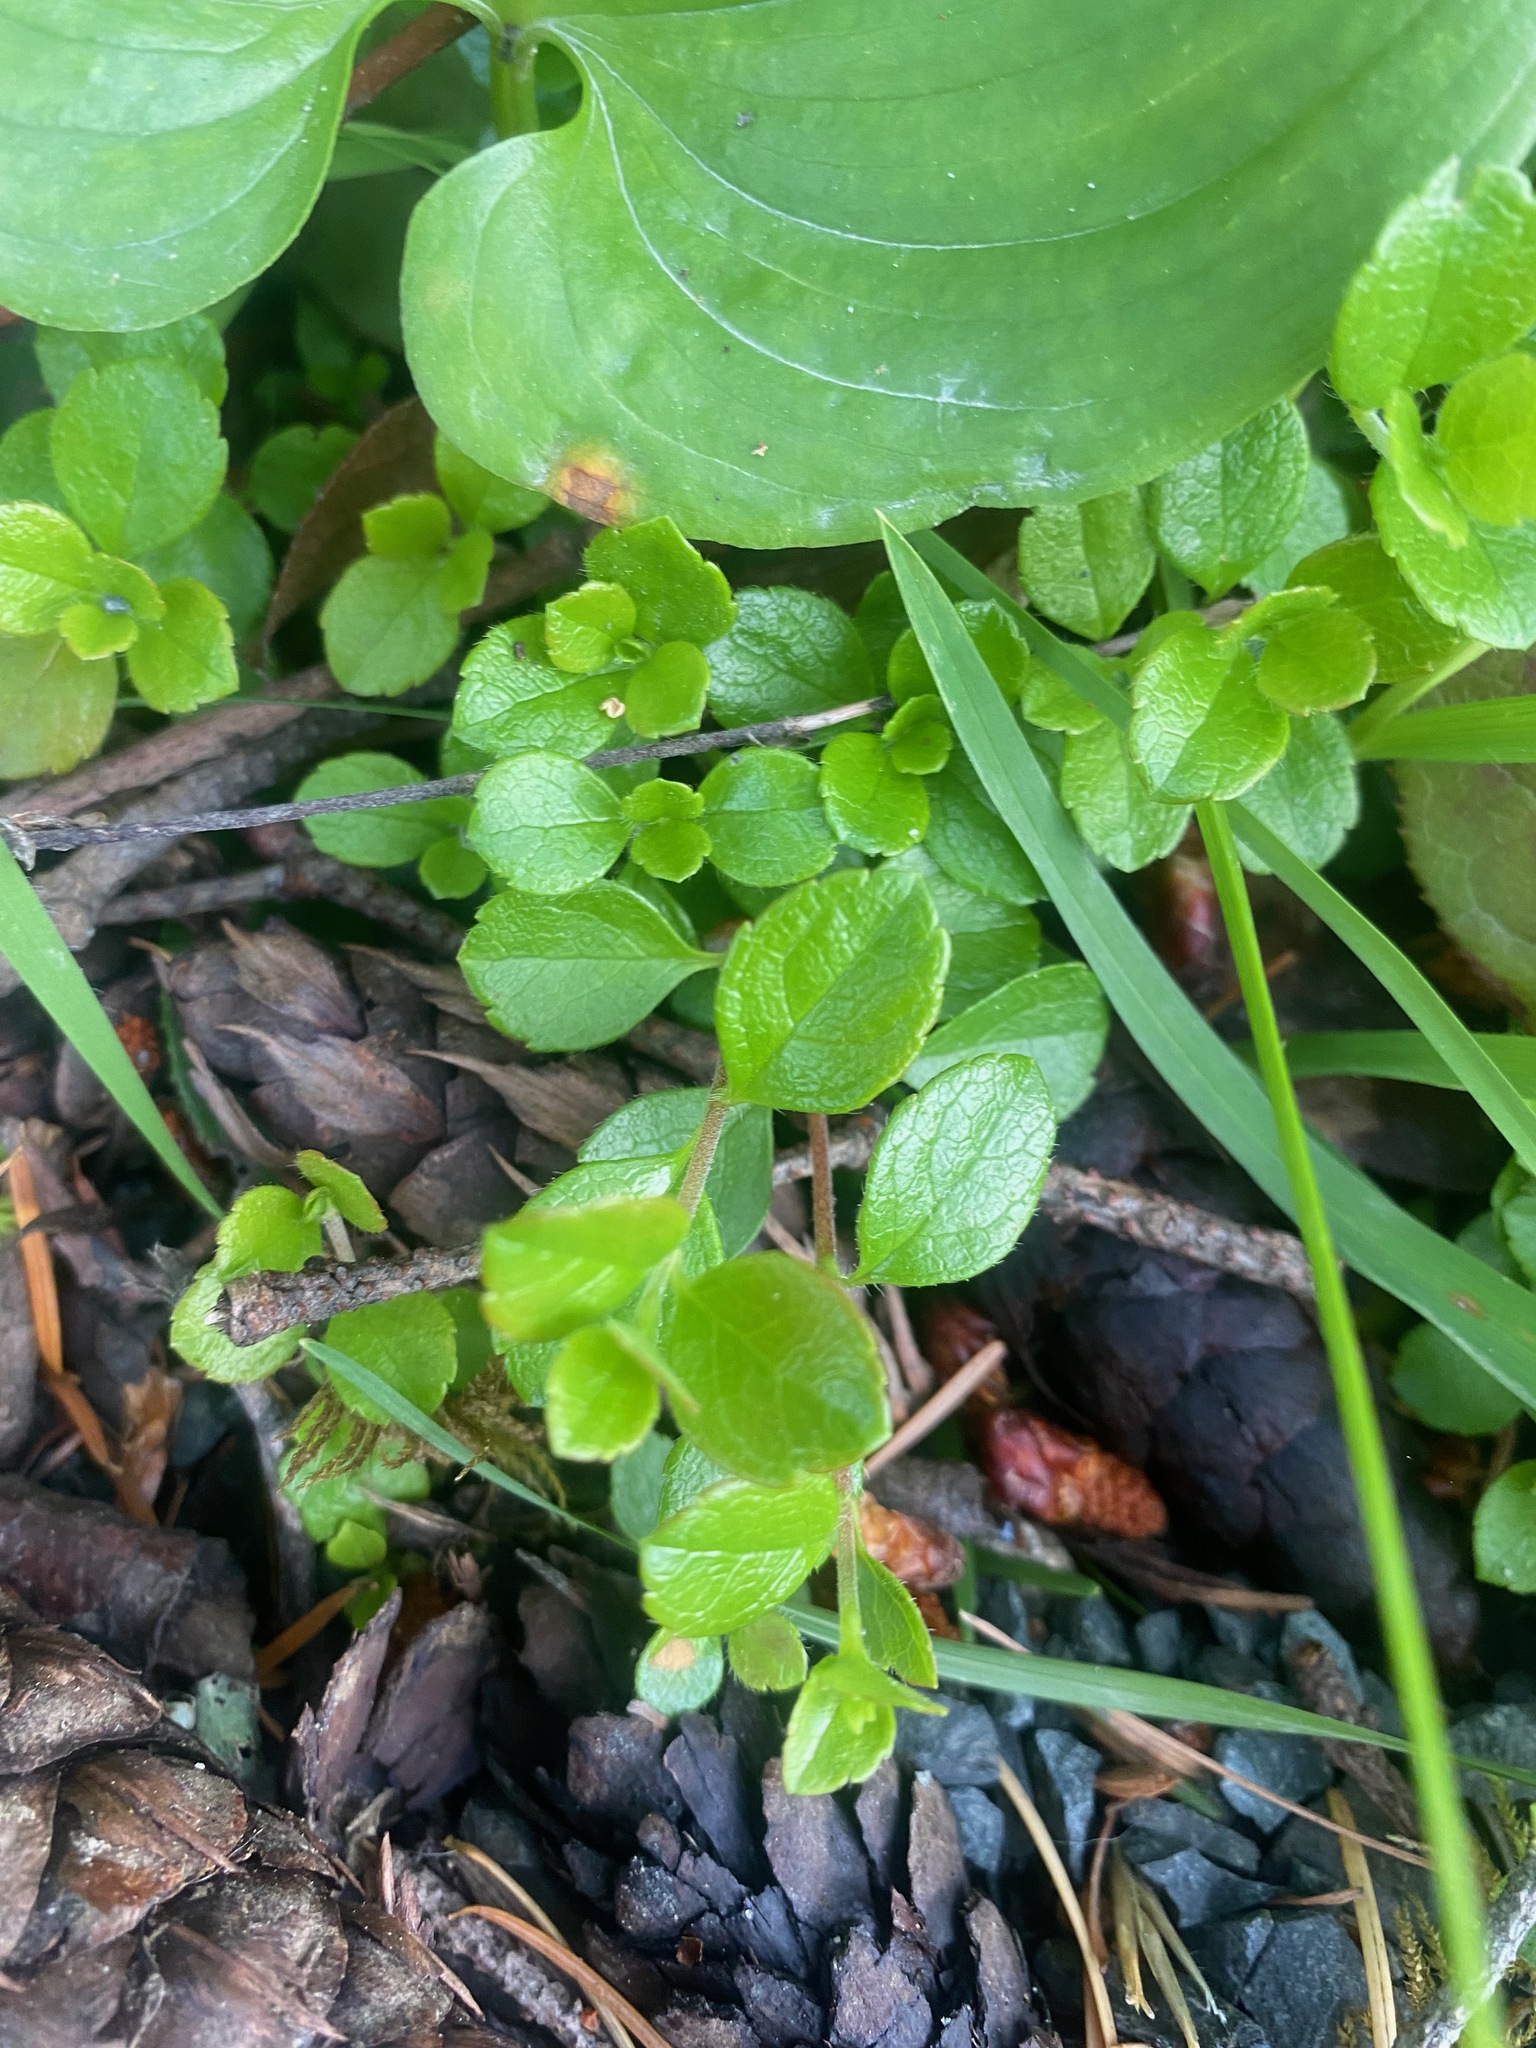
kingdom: Plantae
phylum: Tracheophyta
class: Magnoliopsida
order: Dipsacales
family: Caprifoliaceae
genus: Linnaea
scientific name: Linnaea borealis
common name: Twinflower
